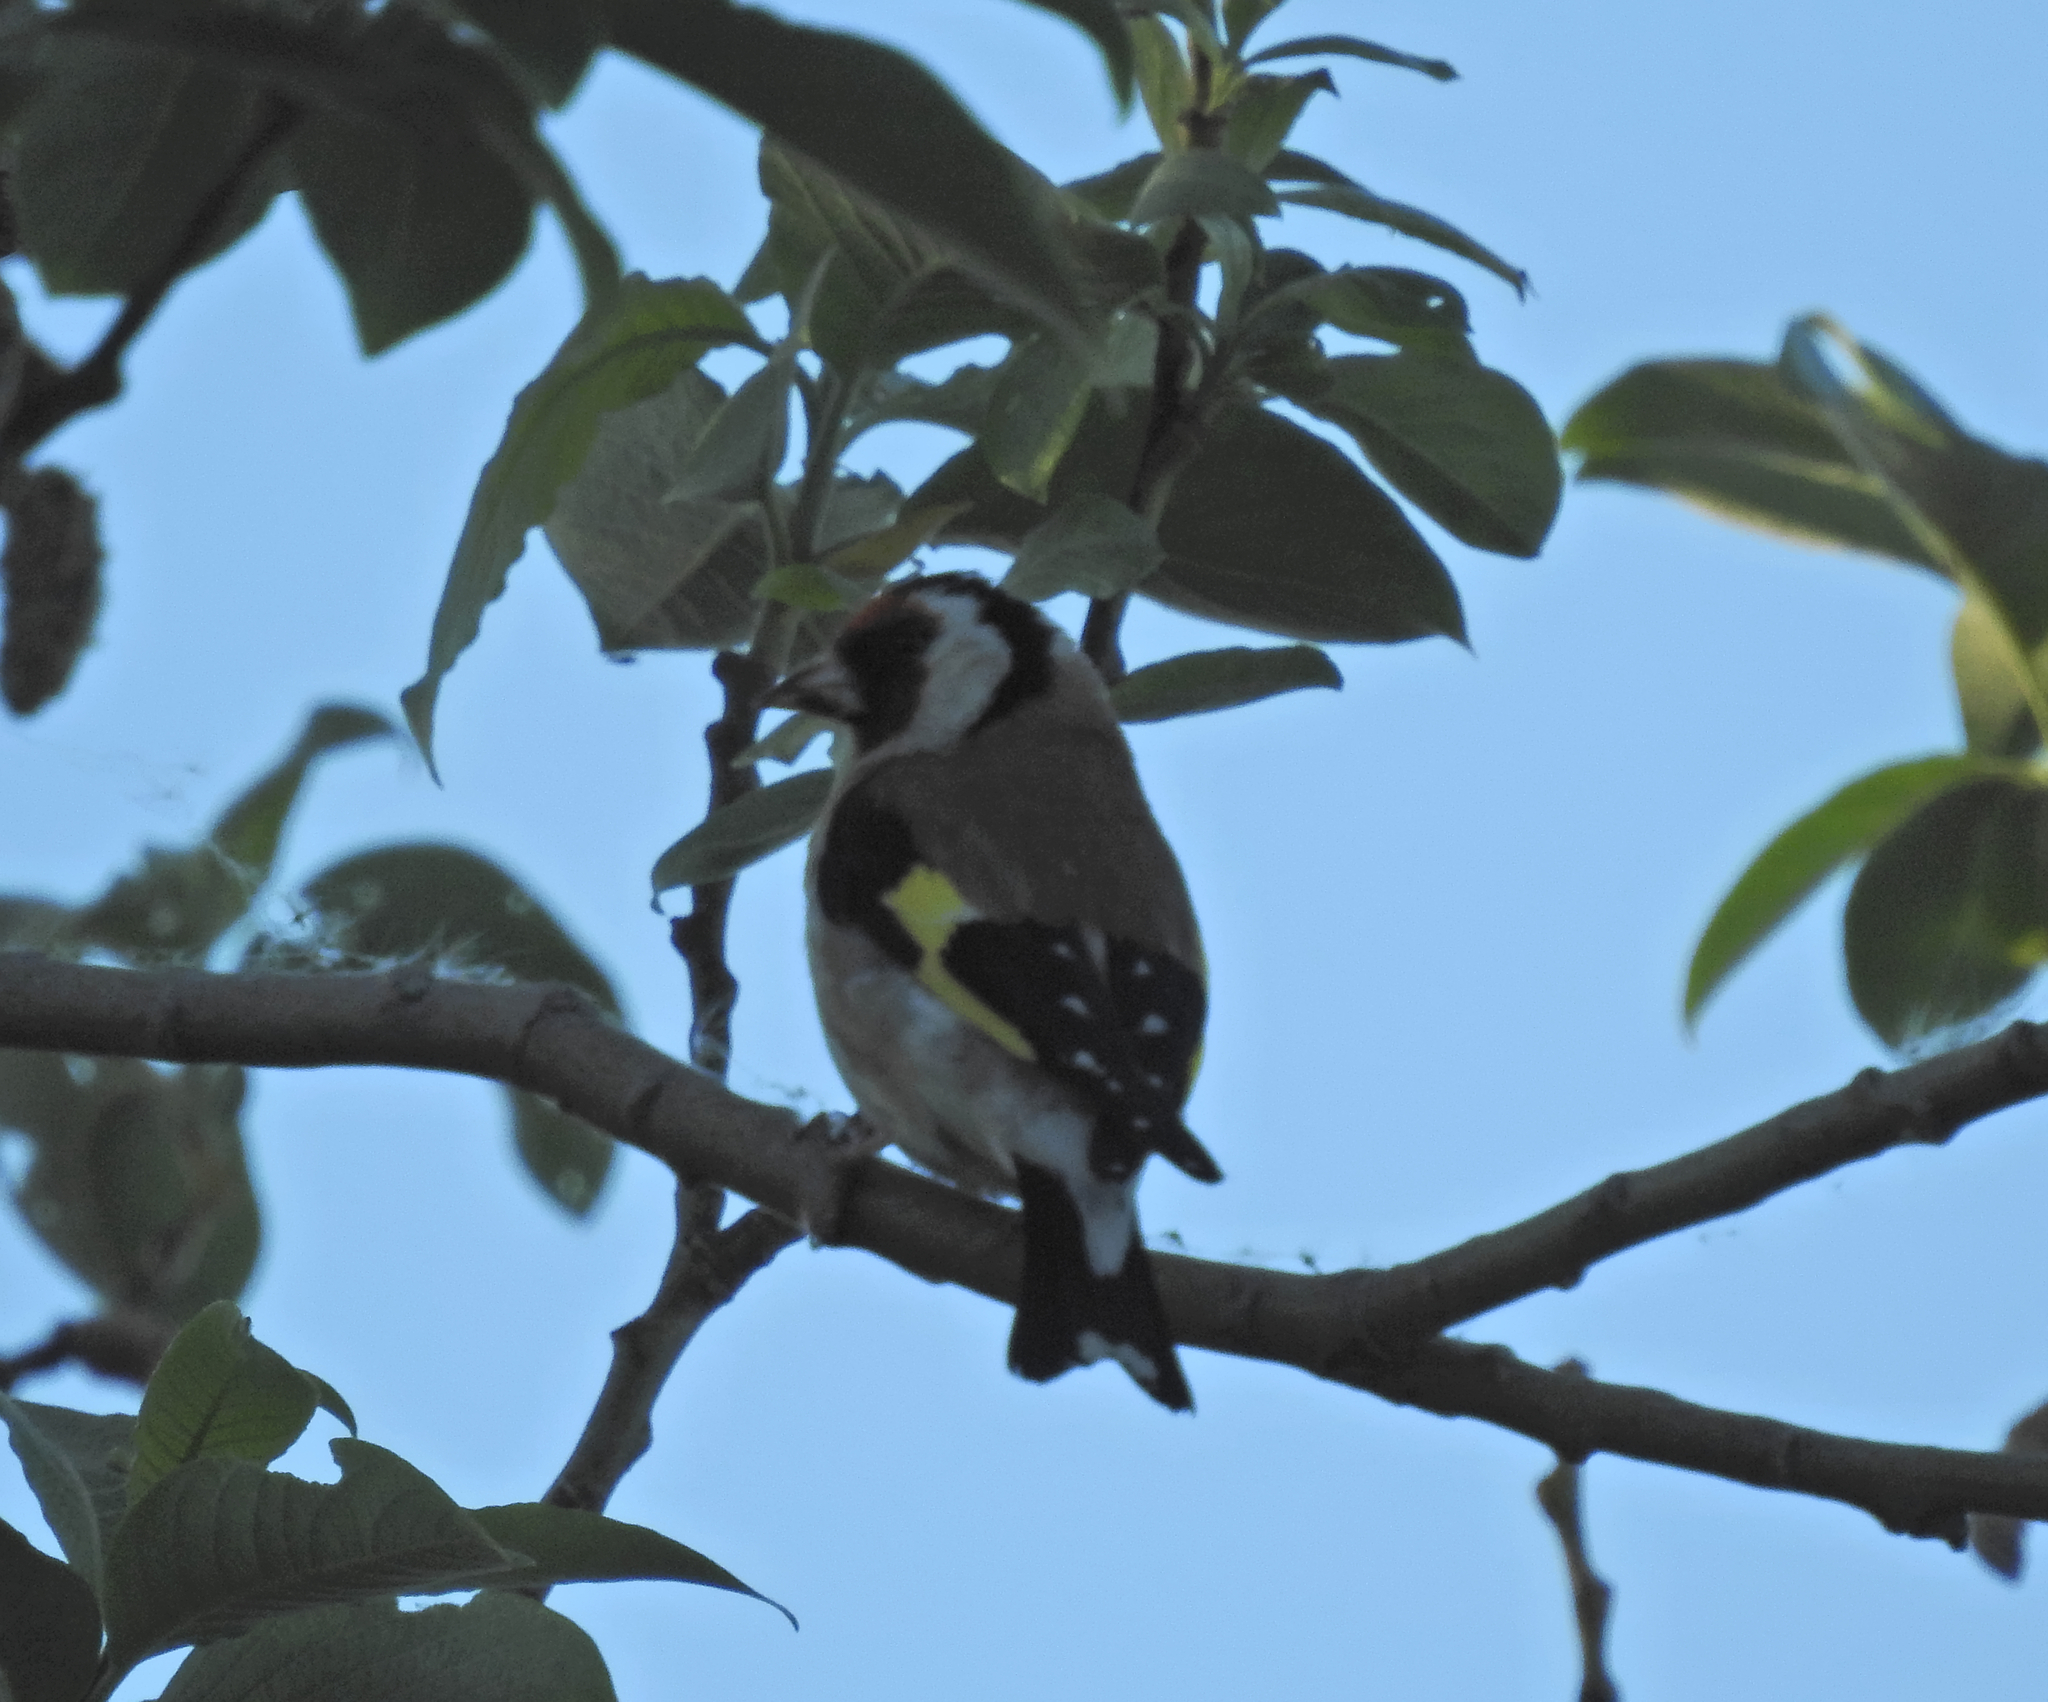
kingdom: Animalia
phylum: Chordata
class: Aves
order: Passeriformes
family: Fringillidae
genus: Carduelis
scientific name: Carduelis carduelis
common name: European goldfinch
